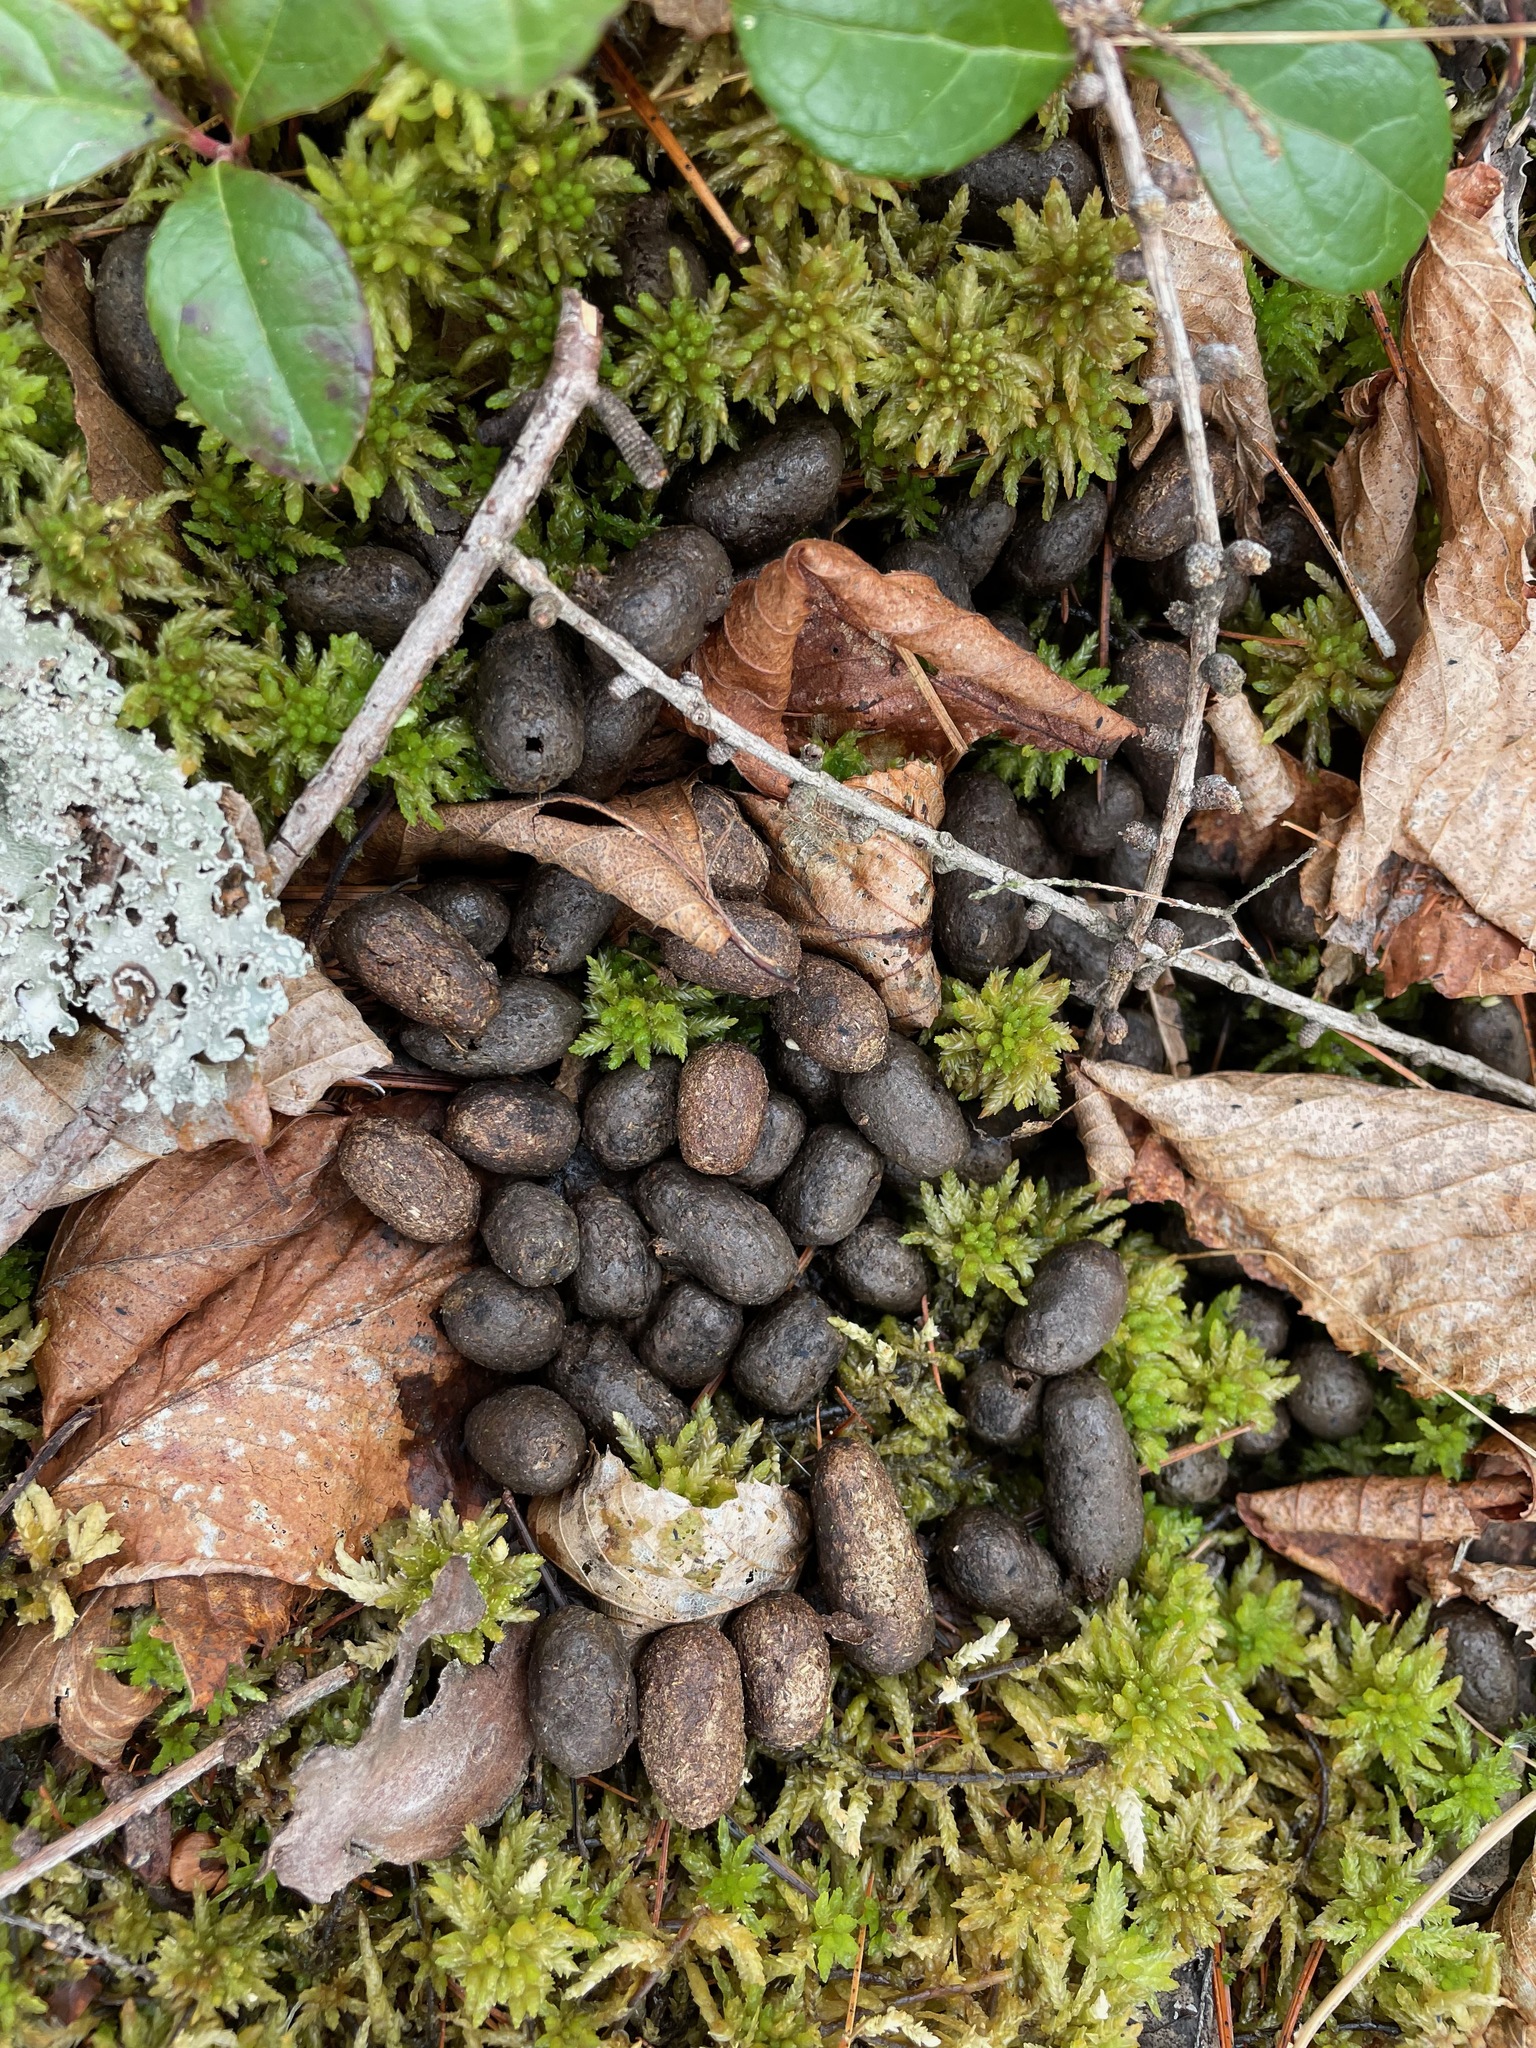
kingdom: Animalia
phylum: Chordata
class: Mammalia
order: Artiodactyla
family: Cervidae
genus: Odocoileus
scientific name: Odocoileus virginianus
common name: White-tailed deer
